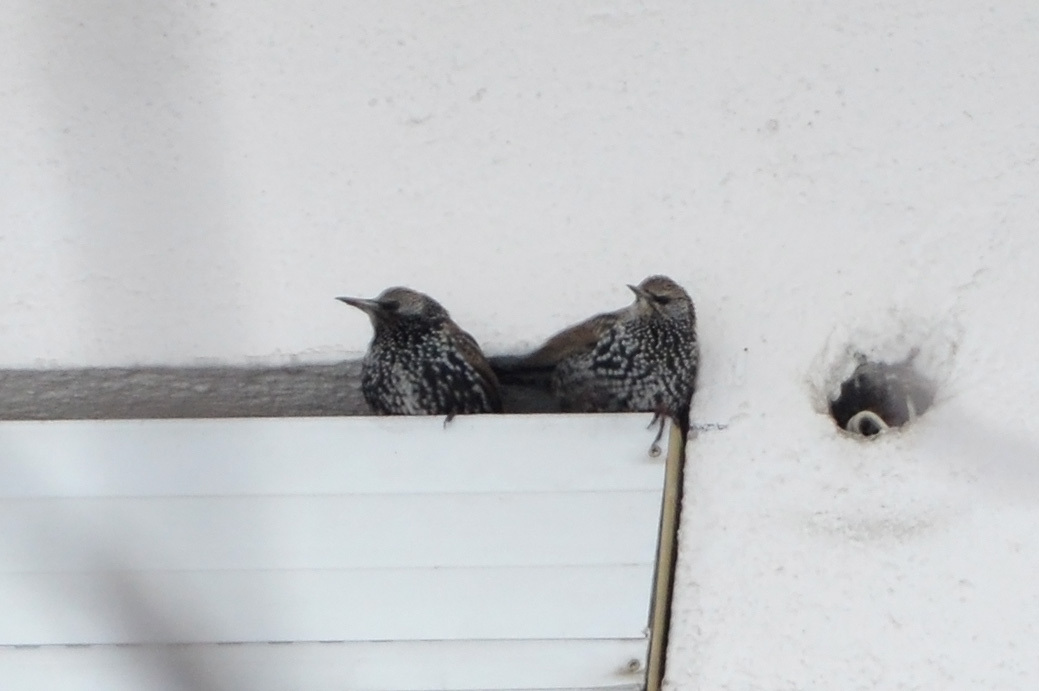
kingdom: Animalia
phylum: Chordata
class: Aves
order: Passeriformes
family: Sturnidae
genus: Sturnus
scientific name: Sturnus vulgaris
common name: Common starling
